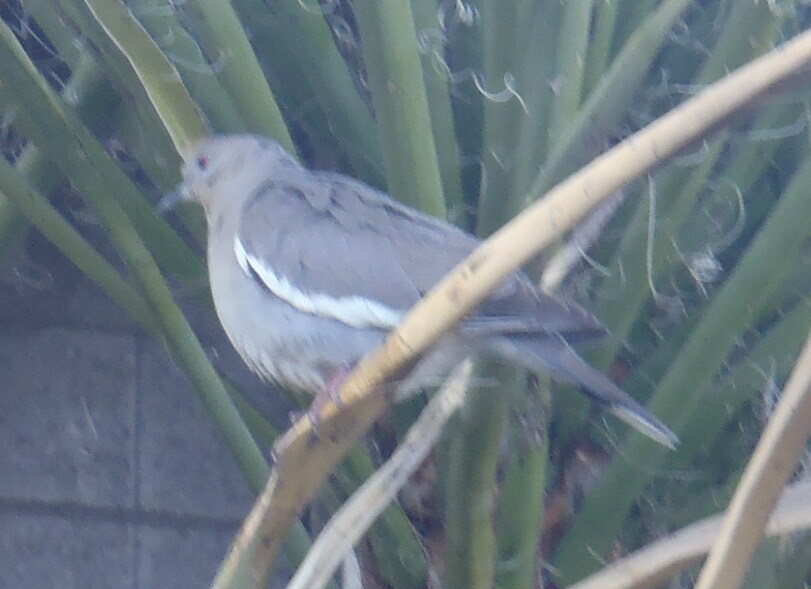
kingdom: Animalia
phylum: Chordata
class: Aves
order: Columbiformes
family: Columbidae
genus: Zenaida
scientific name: Zenaida asiatica
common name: White-winged dove
